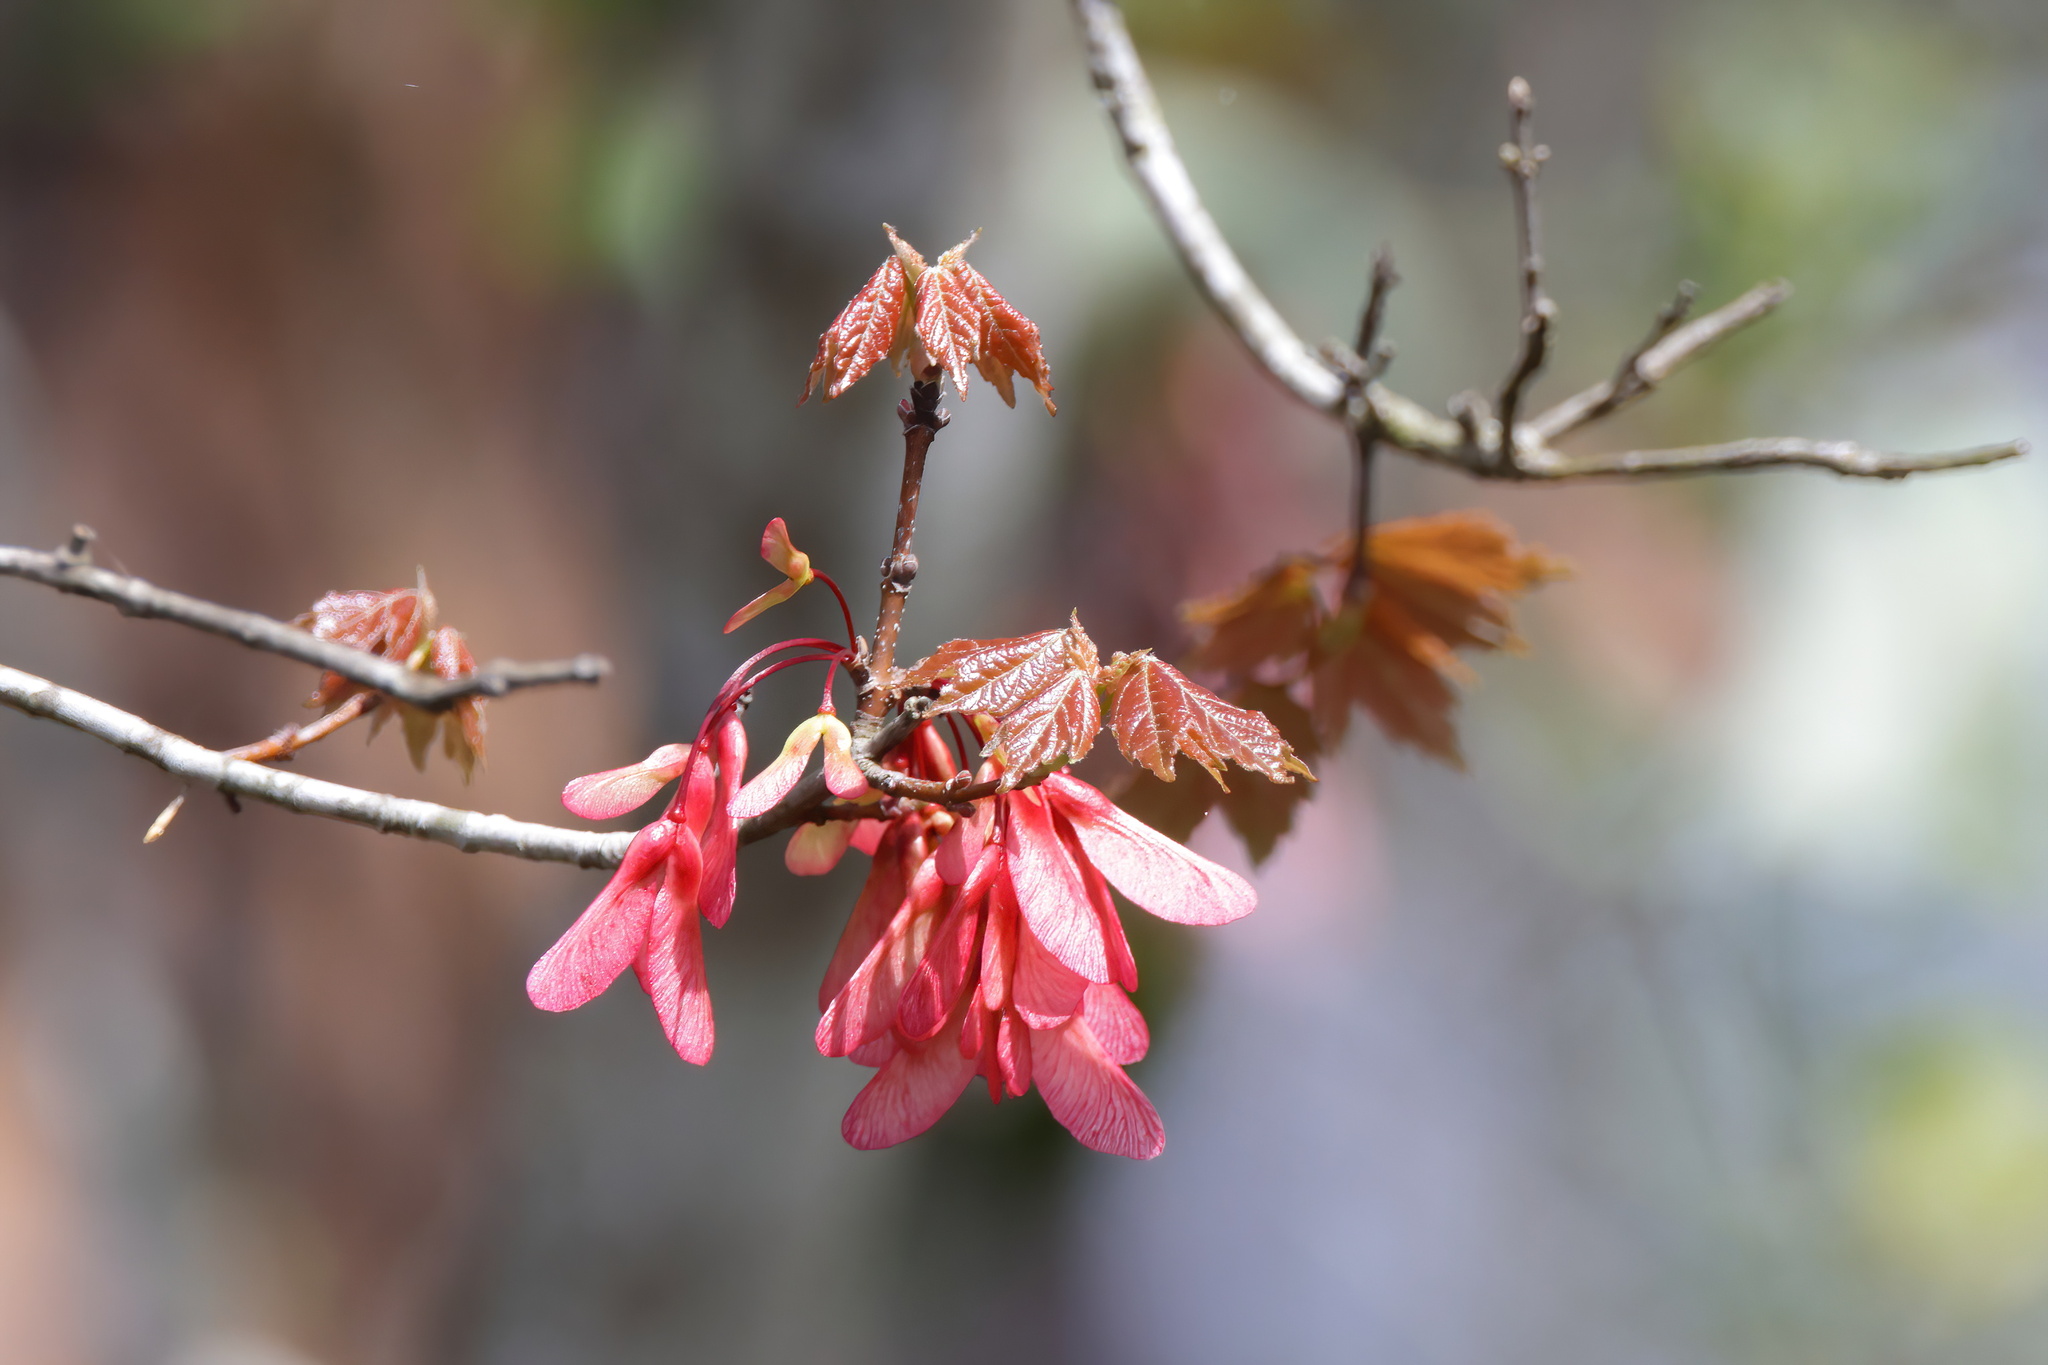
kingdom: Plantae
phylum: Tracheophyta
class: Magnoliopsida
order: Sapindales
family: Sapindaceae
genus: Acer
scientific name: Acer rubrum
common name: Red maple
